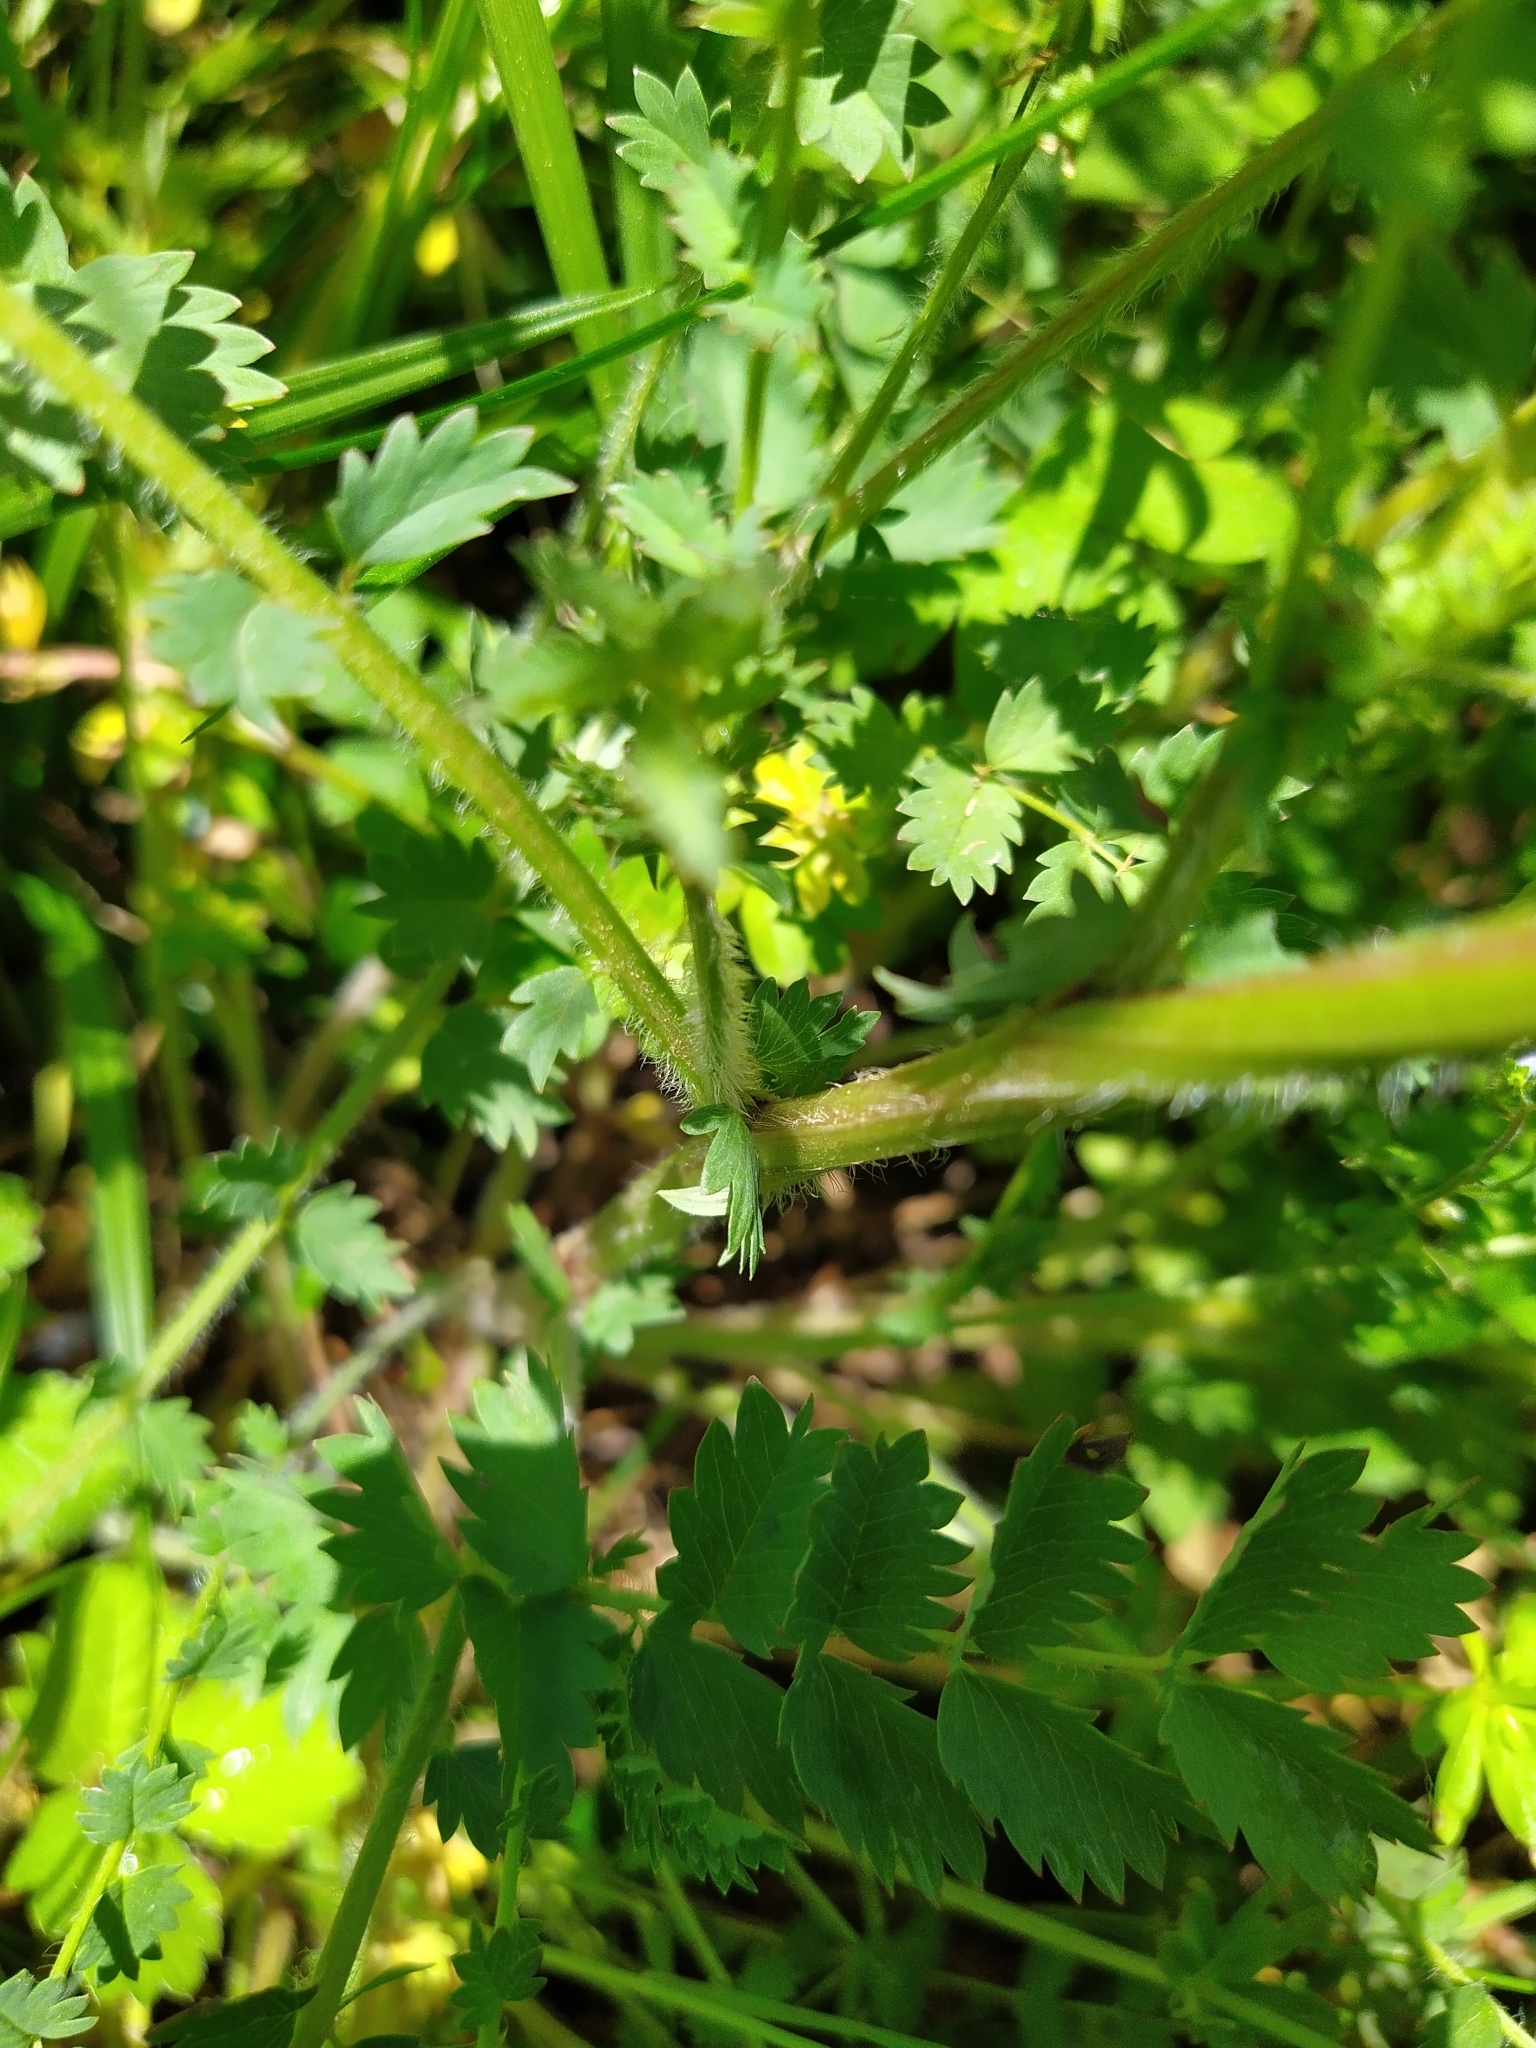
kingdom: Plantae
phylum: Tracheophyta
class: Magnoliopsida
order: Rosales
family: Rosaceae
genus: Poterium
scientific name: Poterium sanguisorba
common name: Salad burnet
